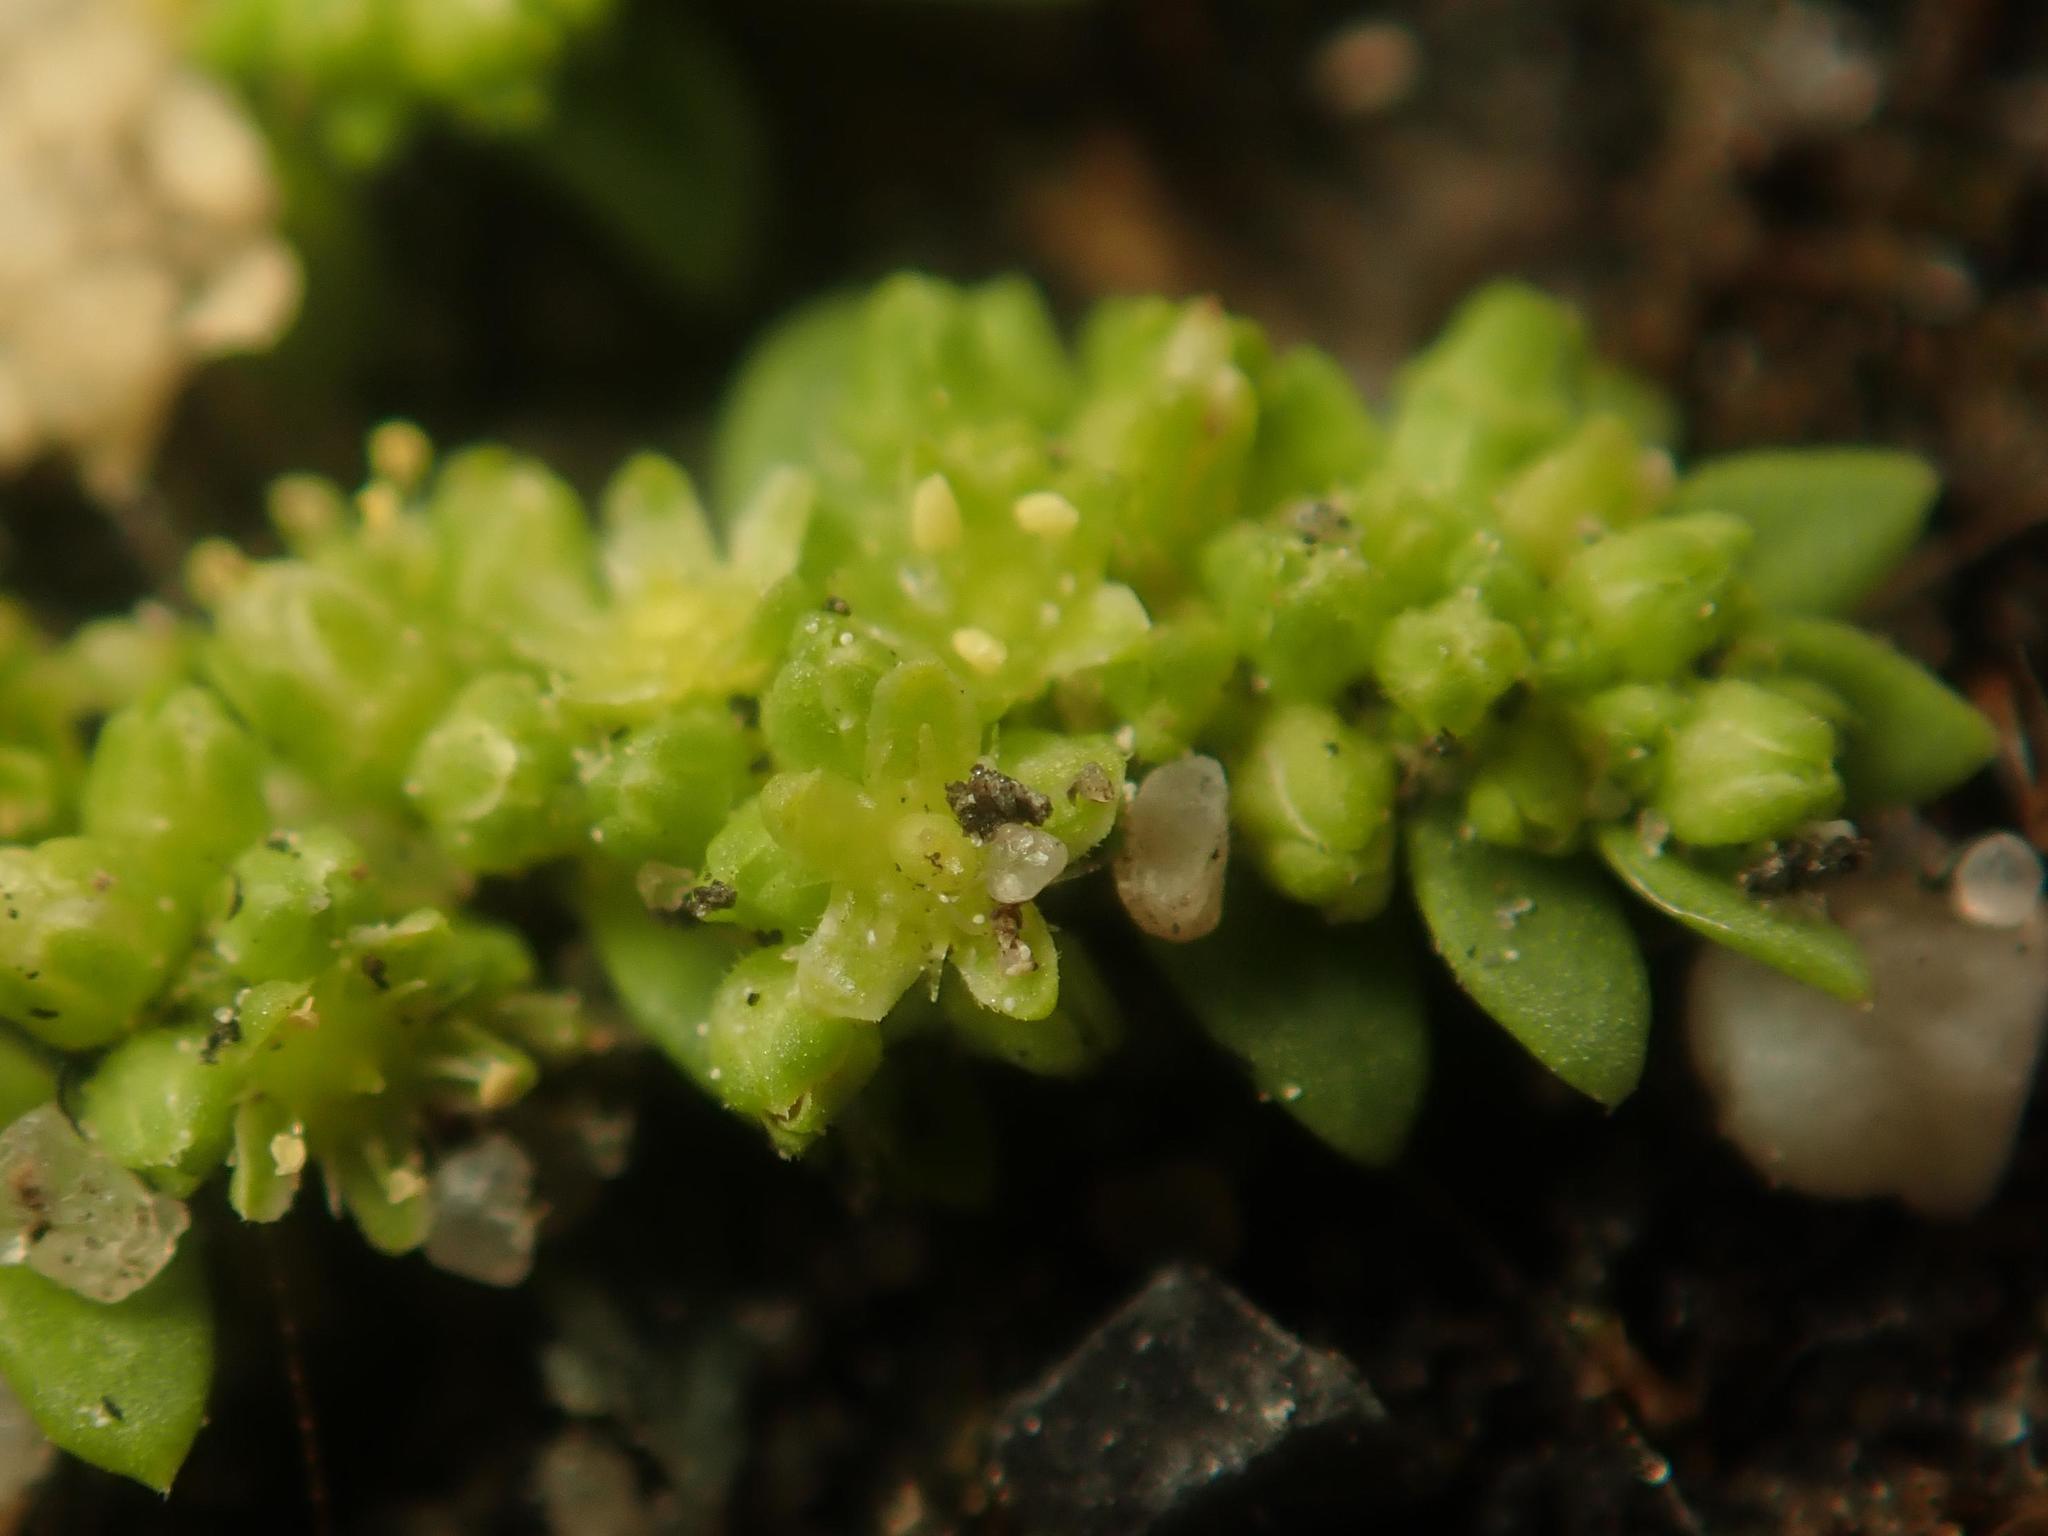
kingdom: Plantae
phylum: Tracheophyta
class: Magnoliopsida
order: Caryophyllales
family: Caryophyllaceae
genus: Herniaria
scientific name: Herniaria glabra
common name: Smooth rupturewort
